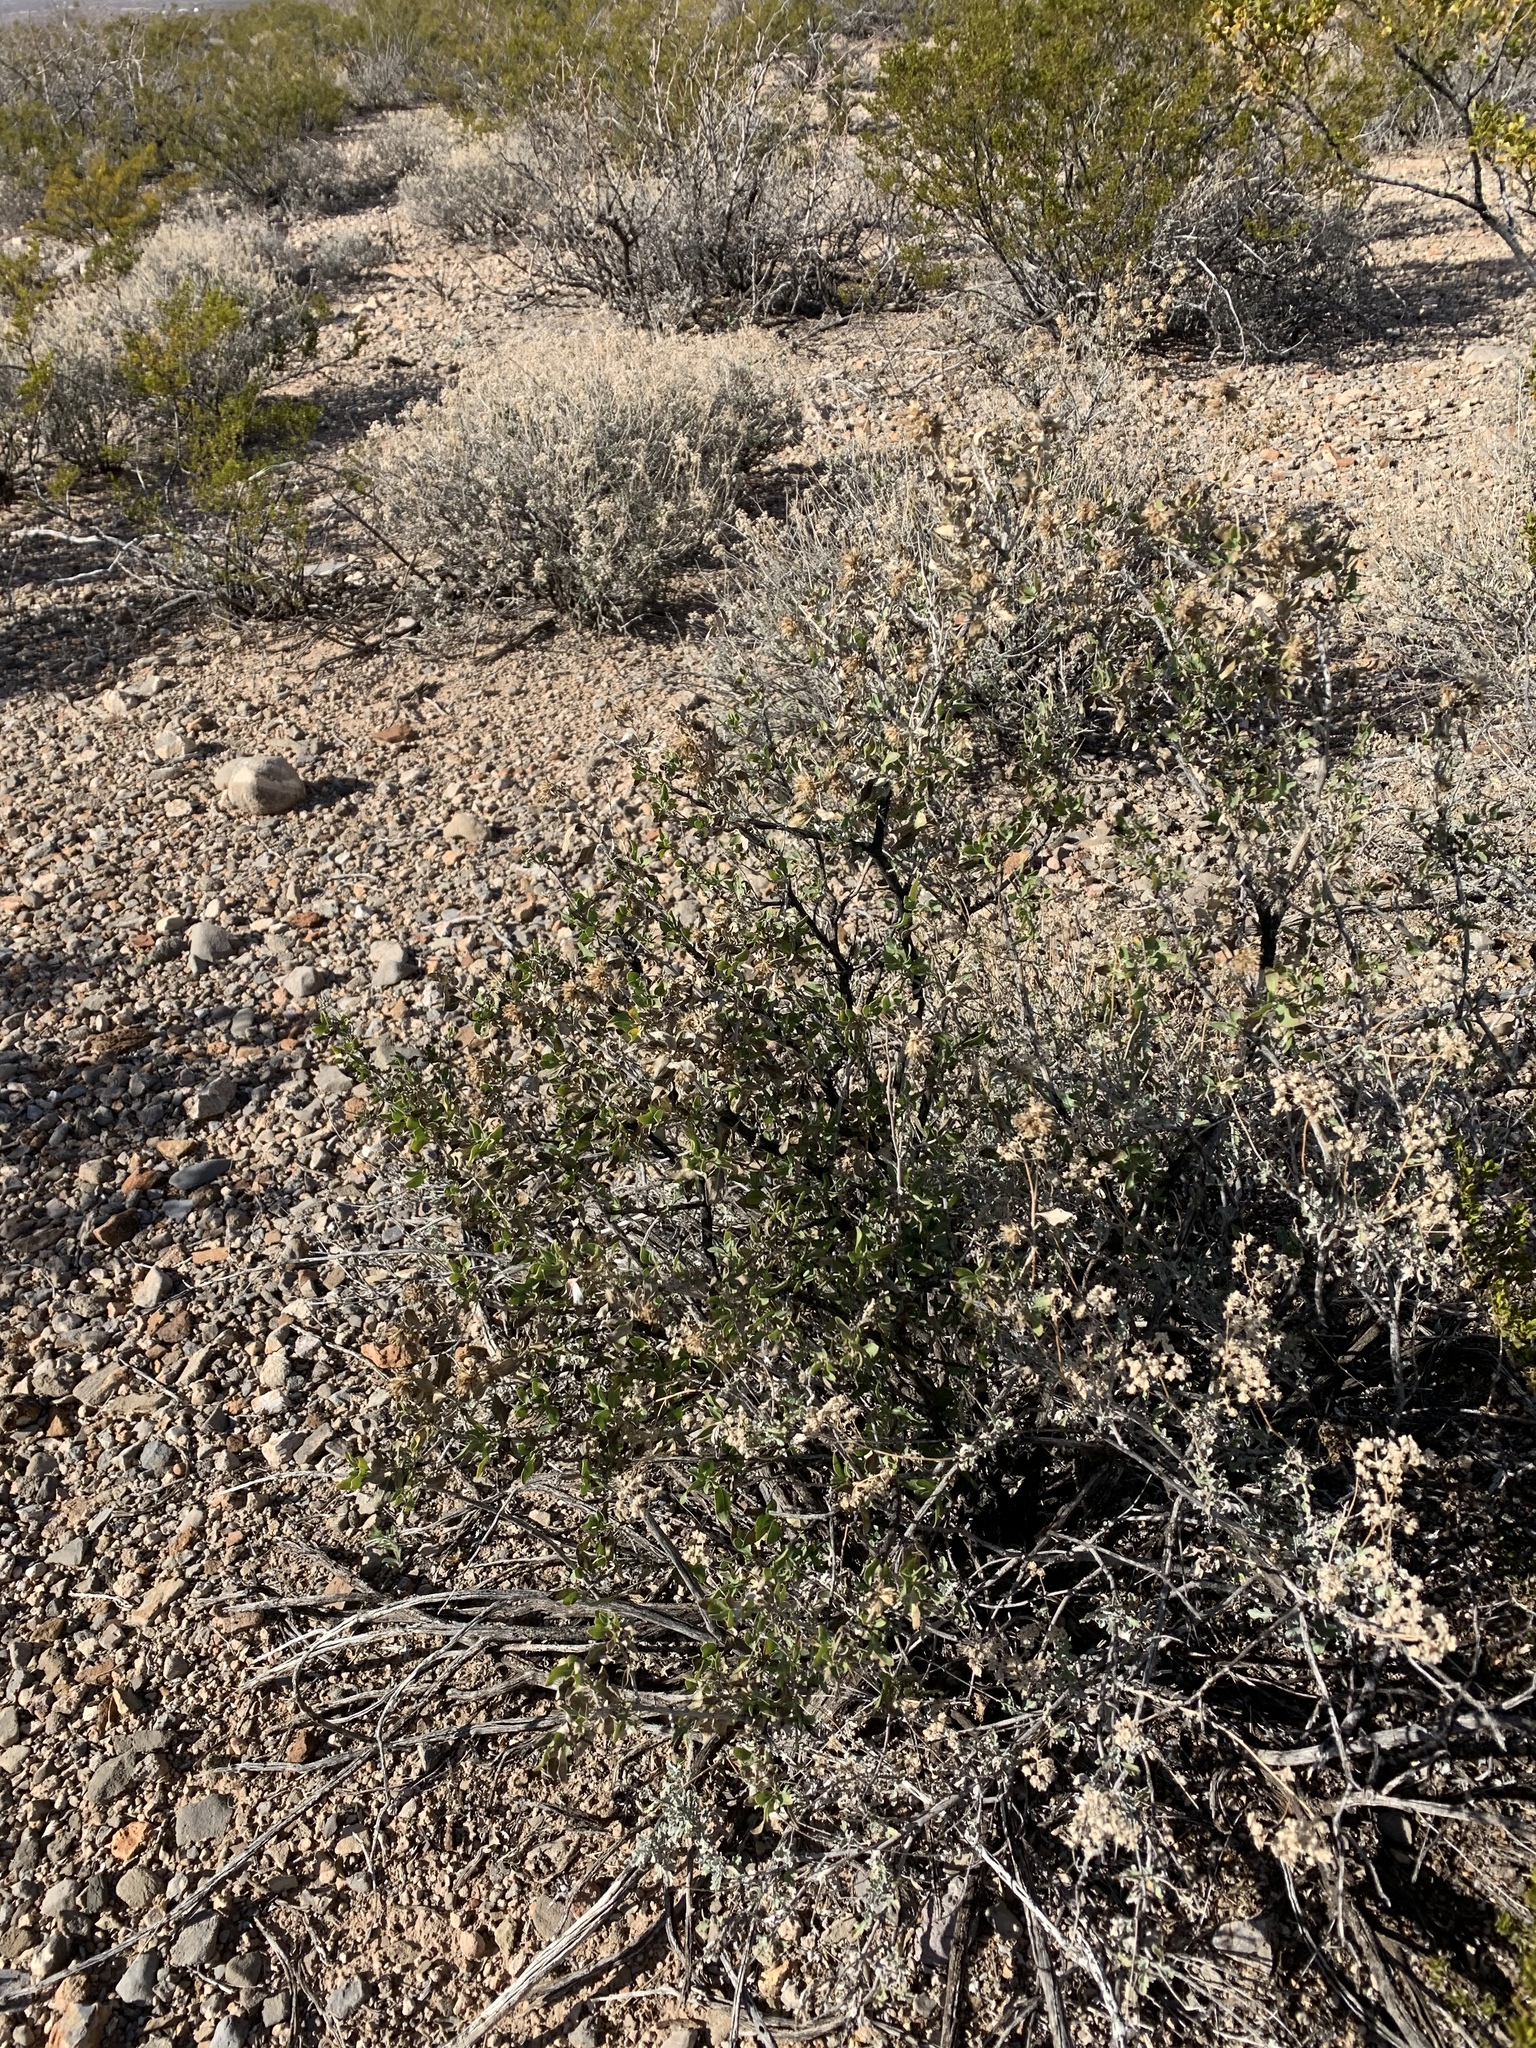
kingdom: Plantae
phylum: Tracheophyta
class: Magnoliopsida
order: Asterales
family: Asteraceae
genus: Flourensia
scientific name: Flourensia cernua
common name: Varnishbush
